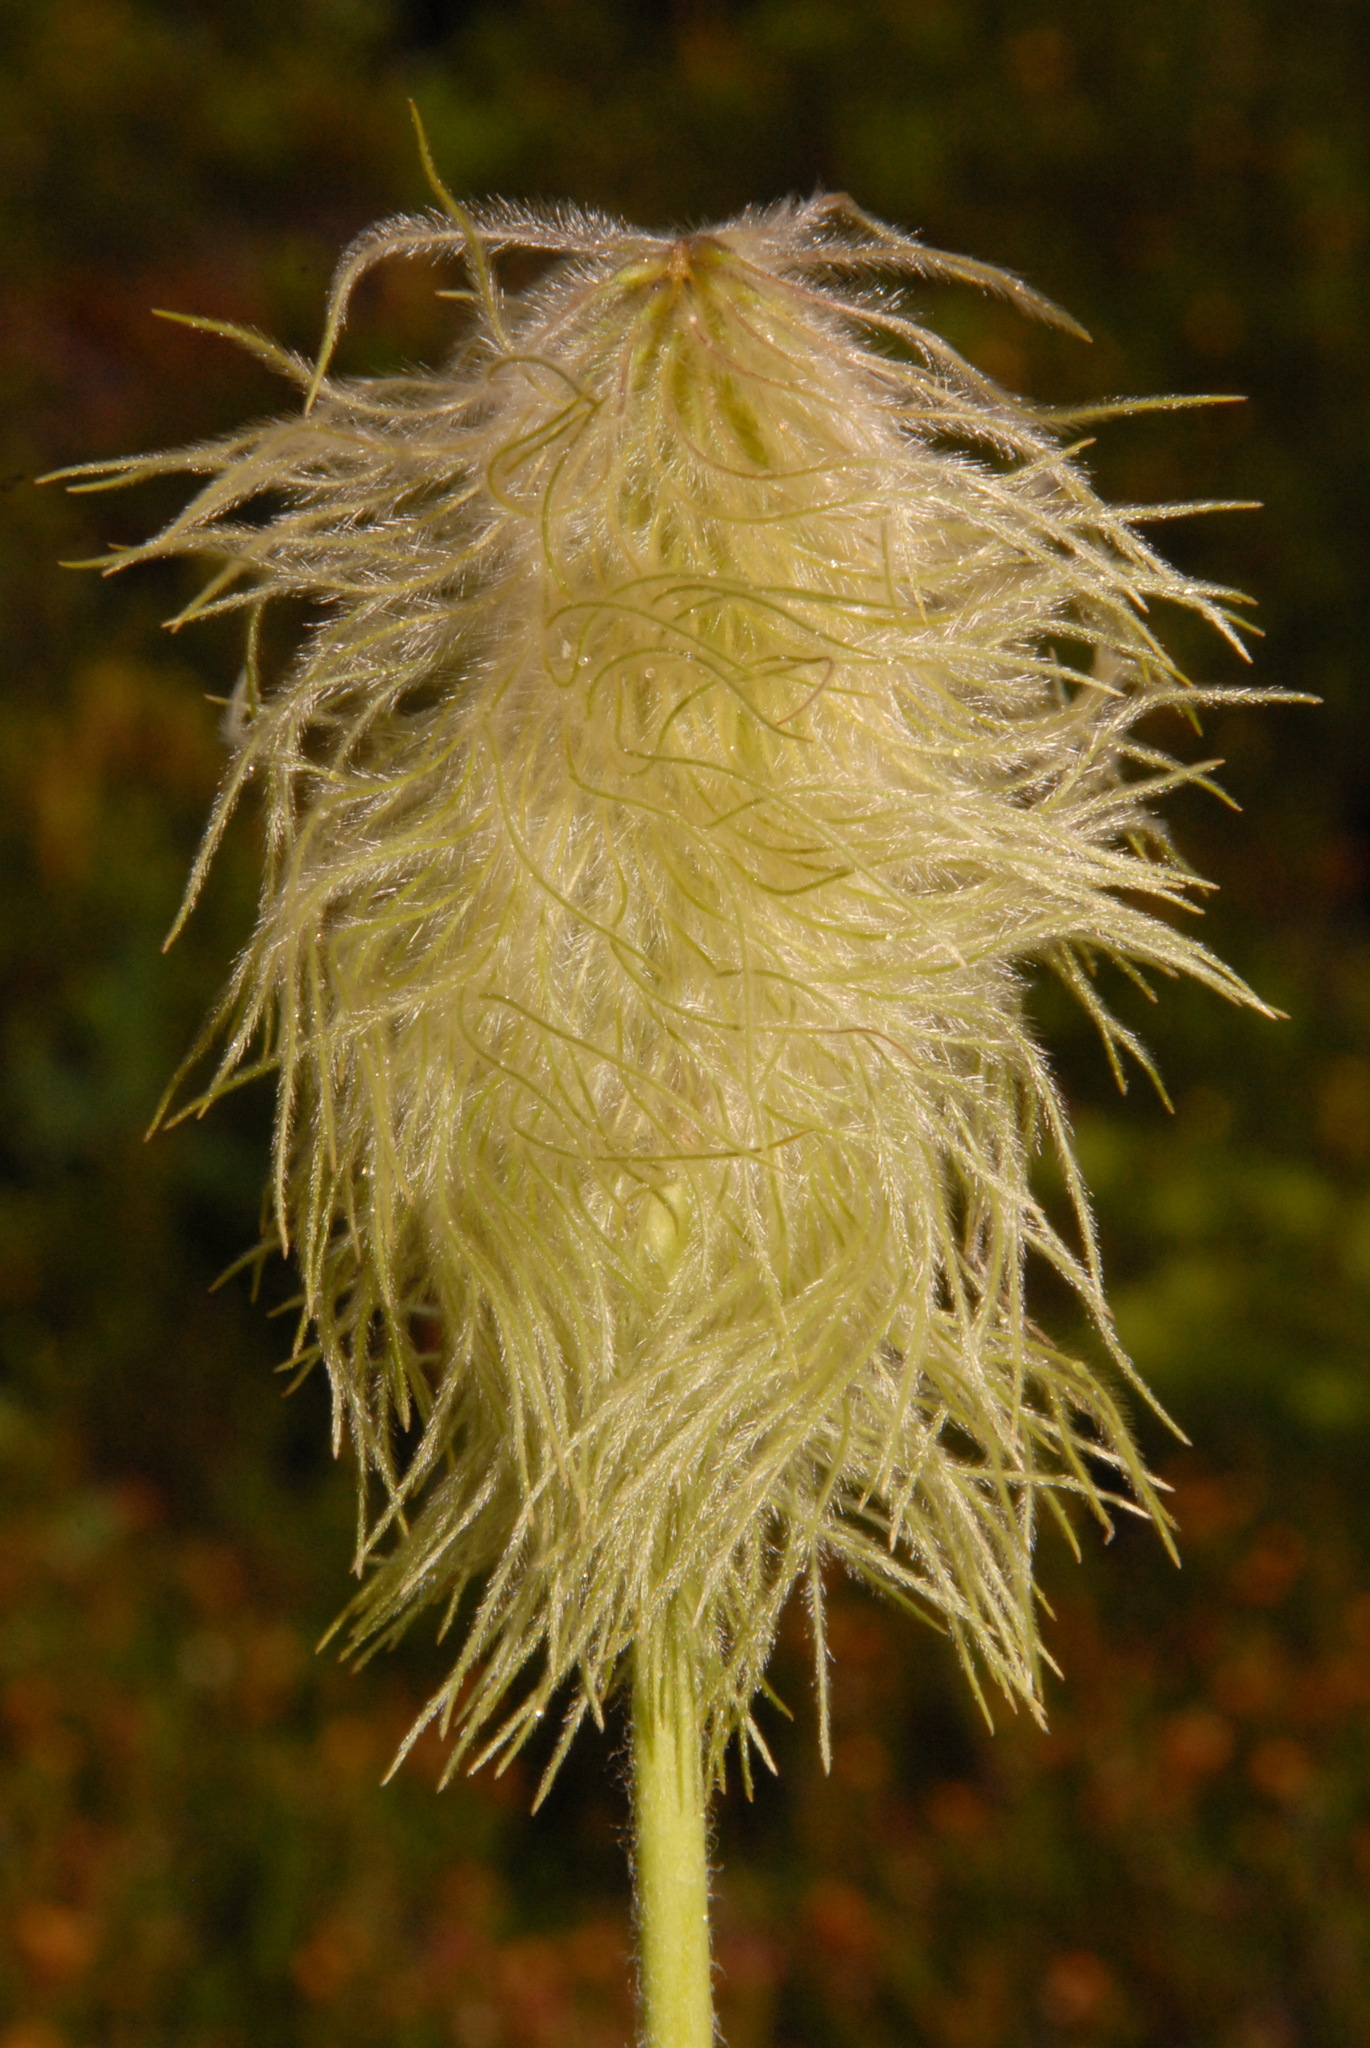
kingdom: Plantae
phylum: Tracheophyta
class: Magnoliopsida
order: Ranunculales
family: Ranunculaceae
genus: Pulsatilla
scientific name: Pulsatilla occidentalis
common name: Mountain pasqueflower
